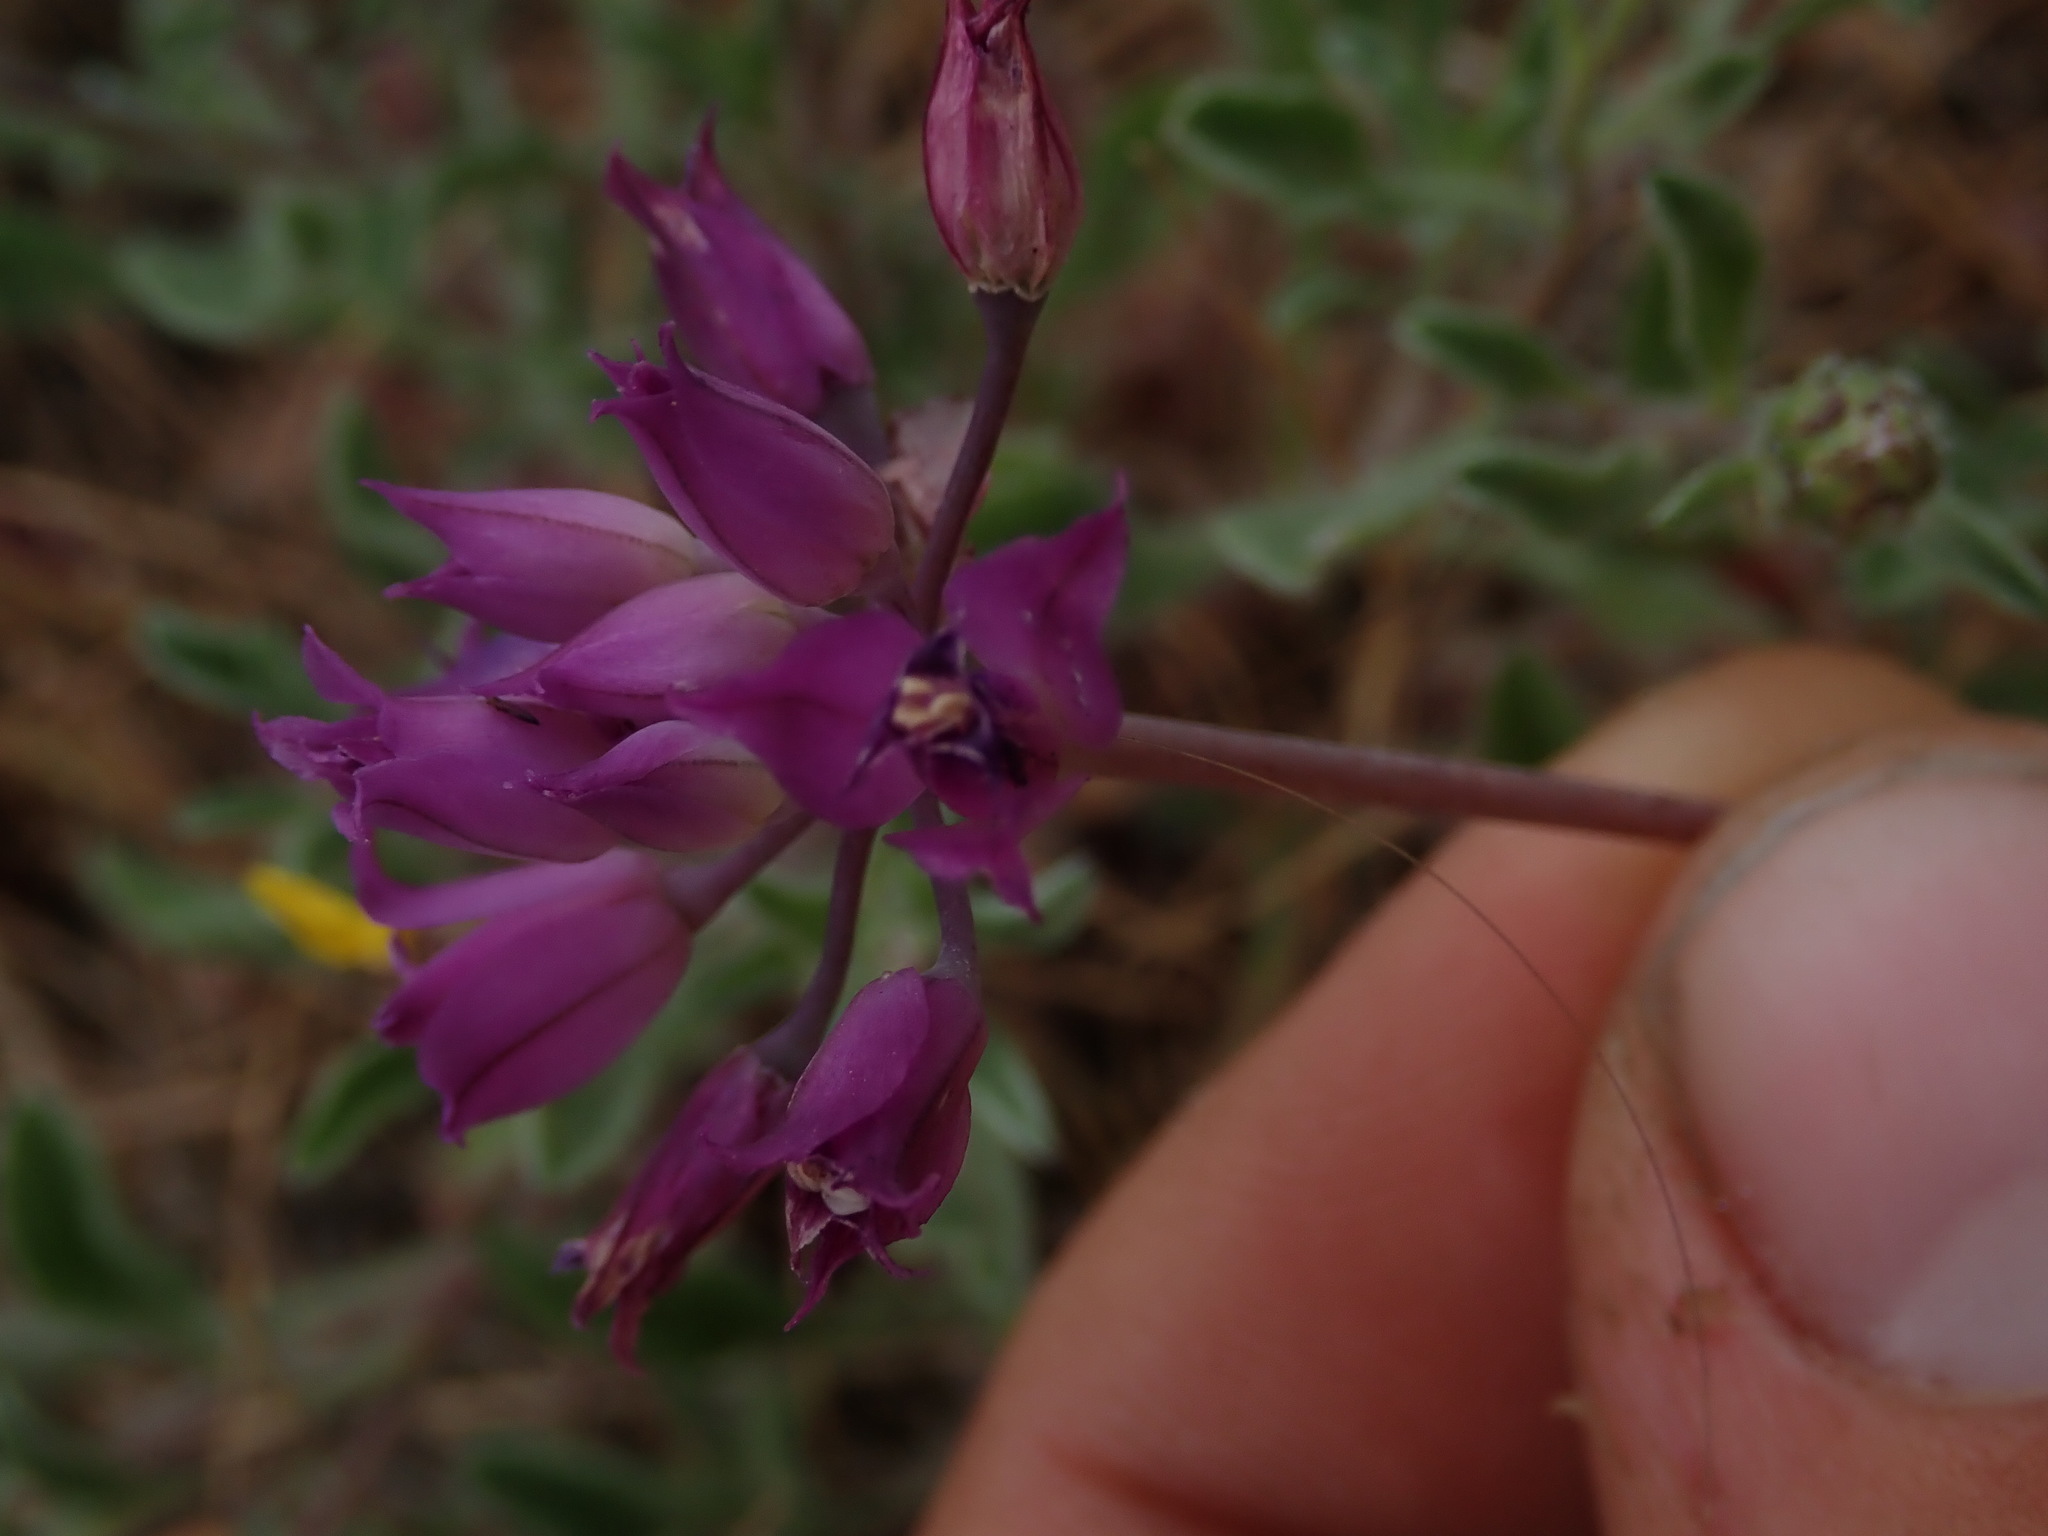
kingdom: Plantae
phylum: Tracheophyta
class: Liliopsida
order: Asparagales
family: Amaryllidaceae
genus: Allium
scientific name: Allium acuminatum
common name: Hooker's onion
